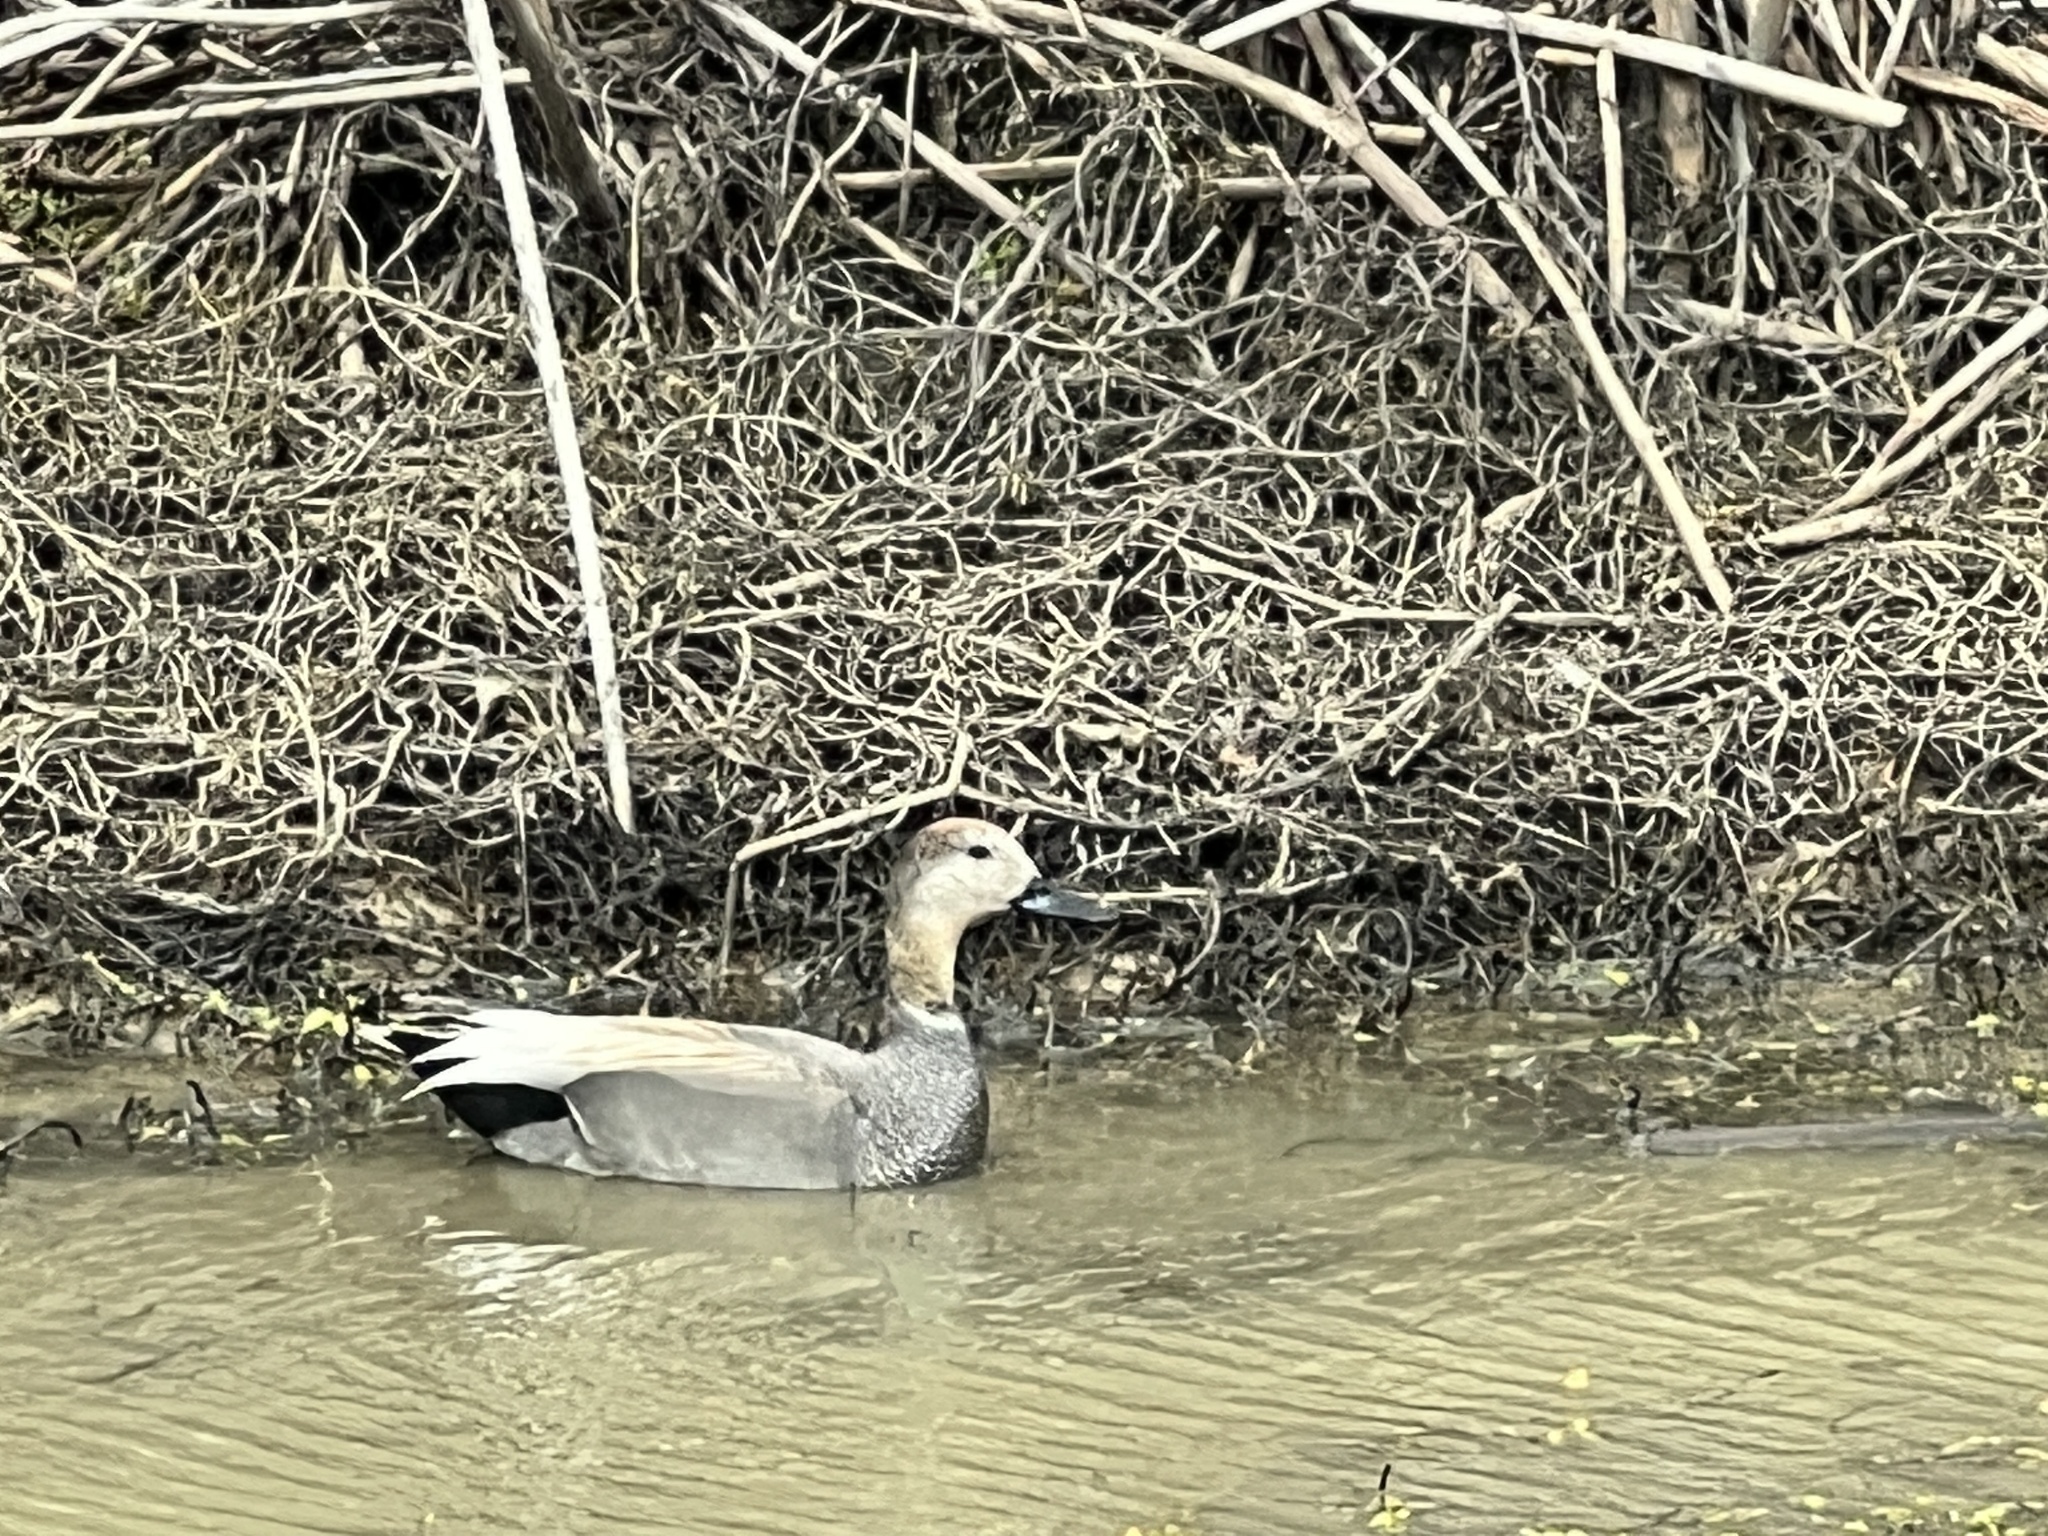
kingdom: Animalia
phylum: Chordata
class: Aves
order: Anseriformes
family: Anatidae
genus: Mareca
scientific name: Mareca strepera
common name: Gadwall
